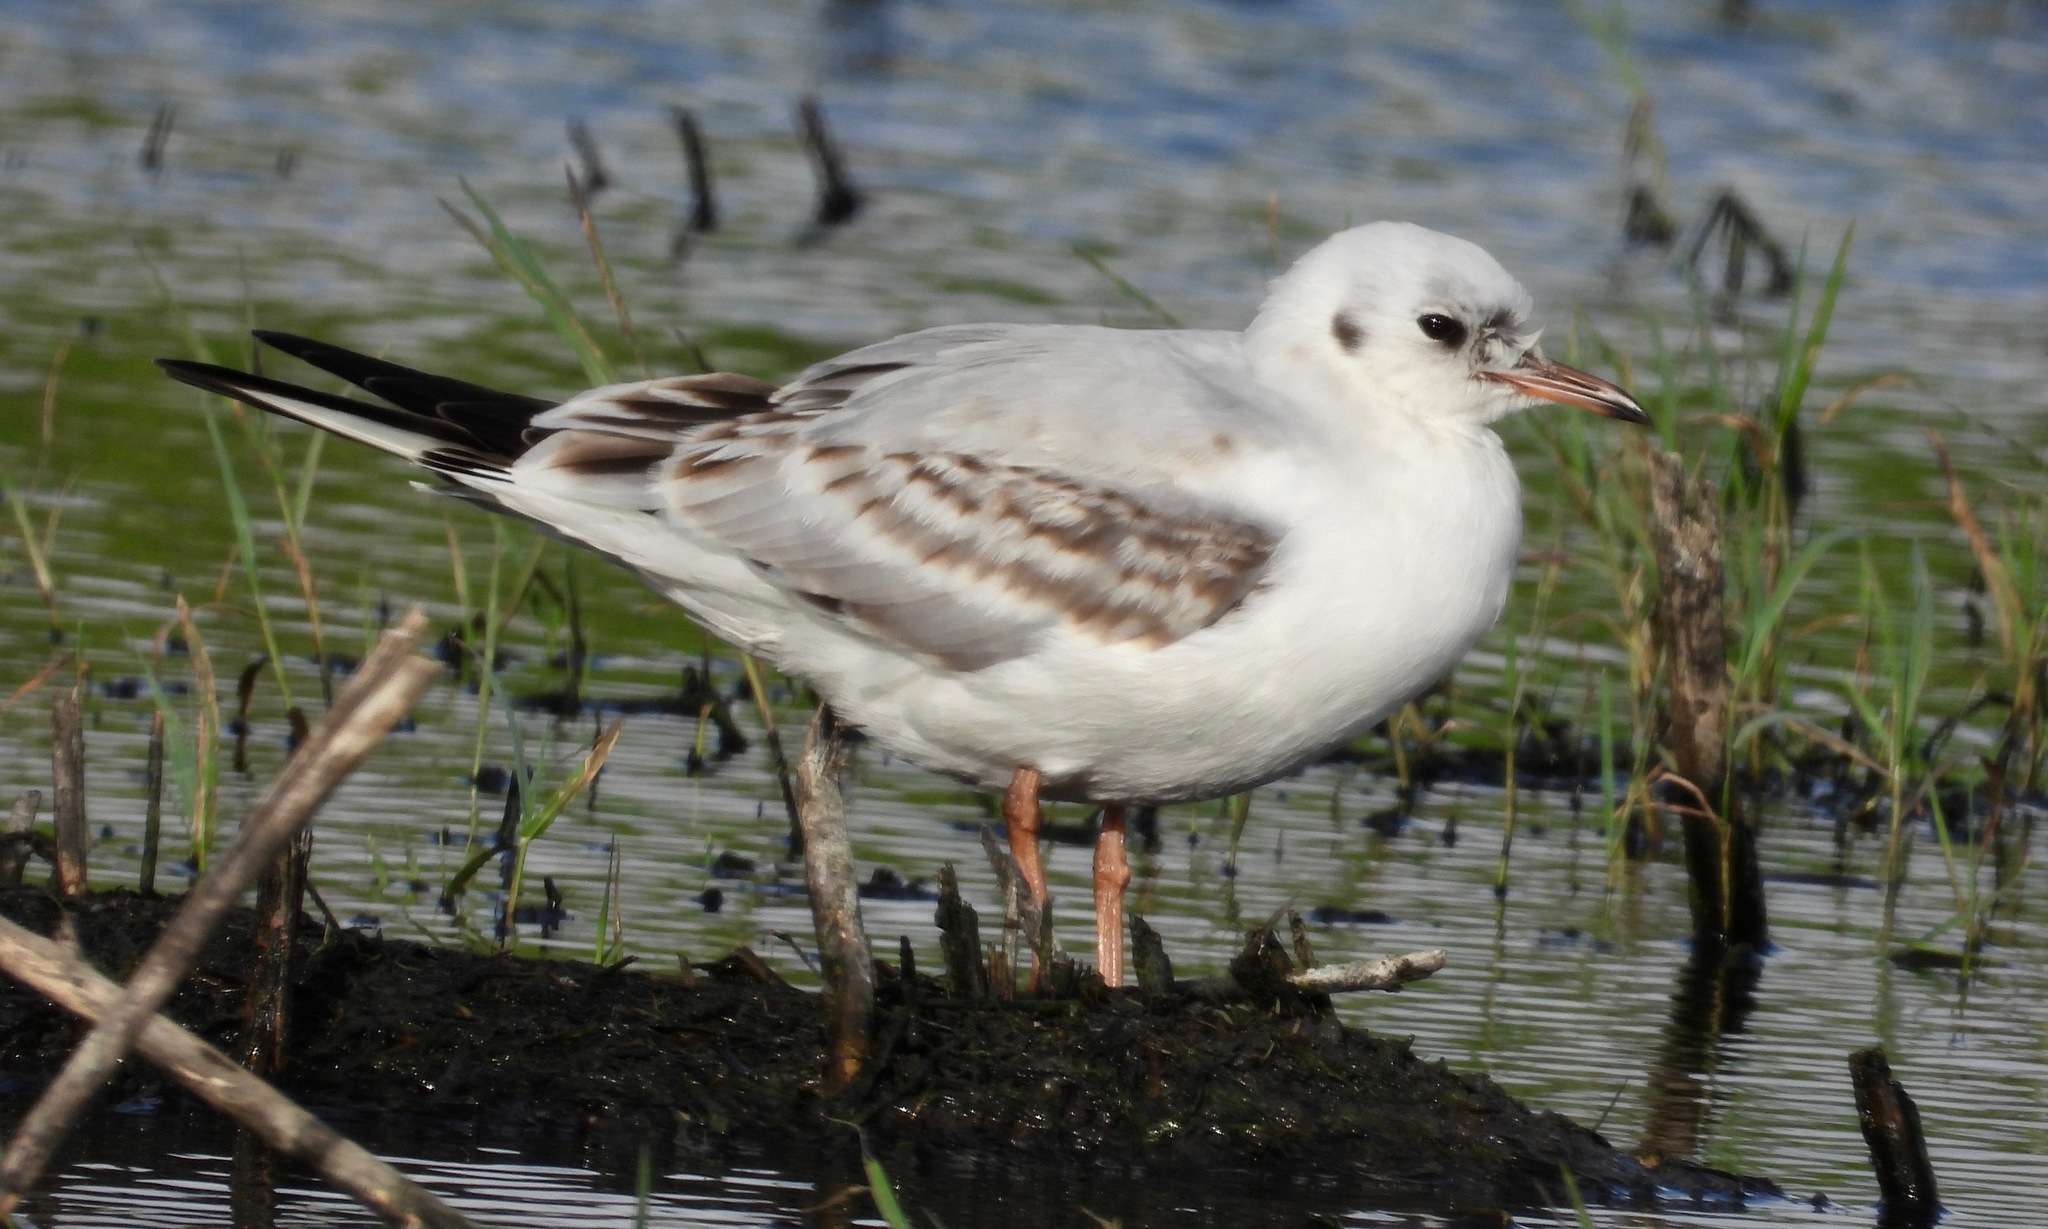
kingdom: Animalia
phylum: Chordata
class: Aves
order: Charadriiformes
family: Laridae
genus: Chroicocephalus
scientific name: Chroicocephalus ridibundus
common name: Black-headed gull
